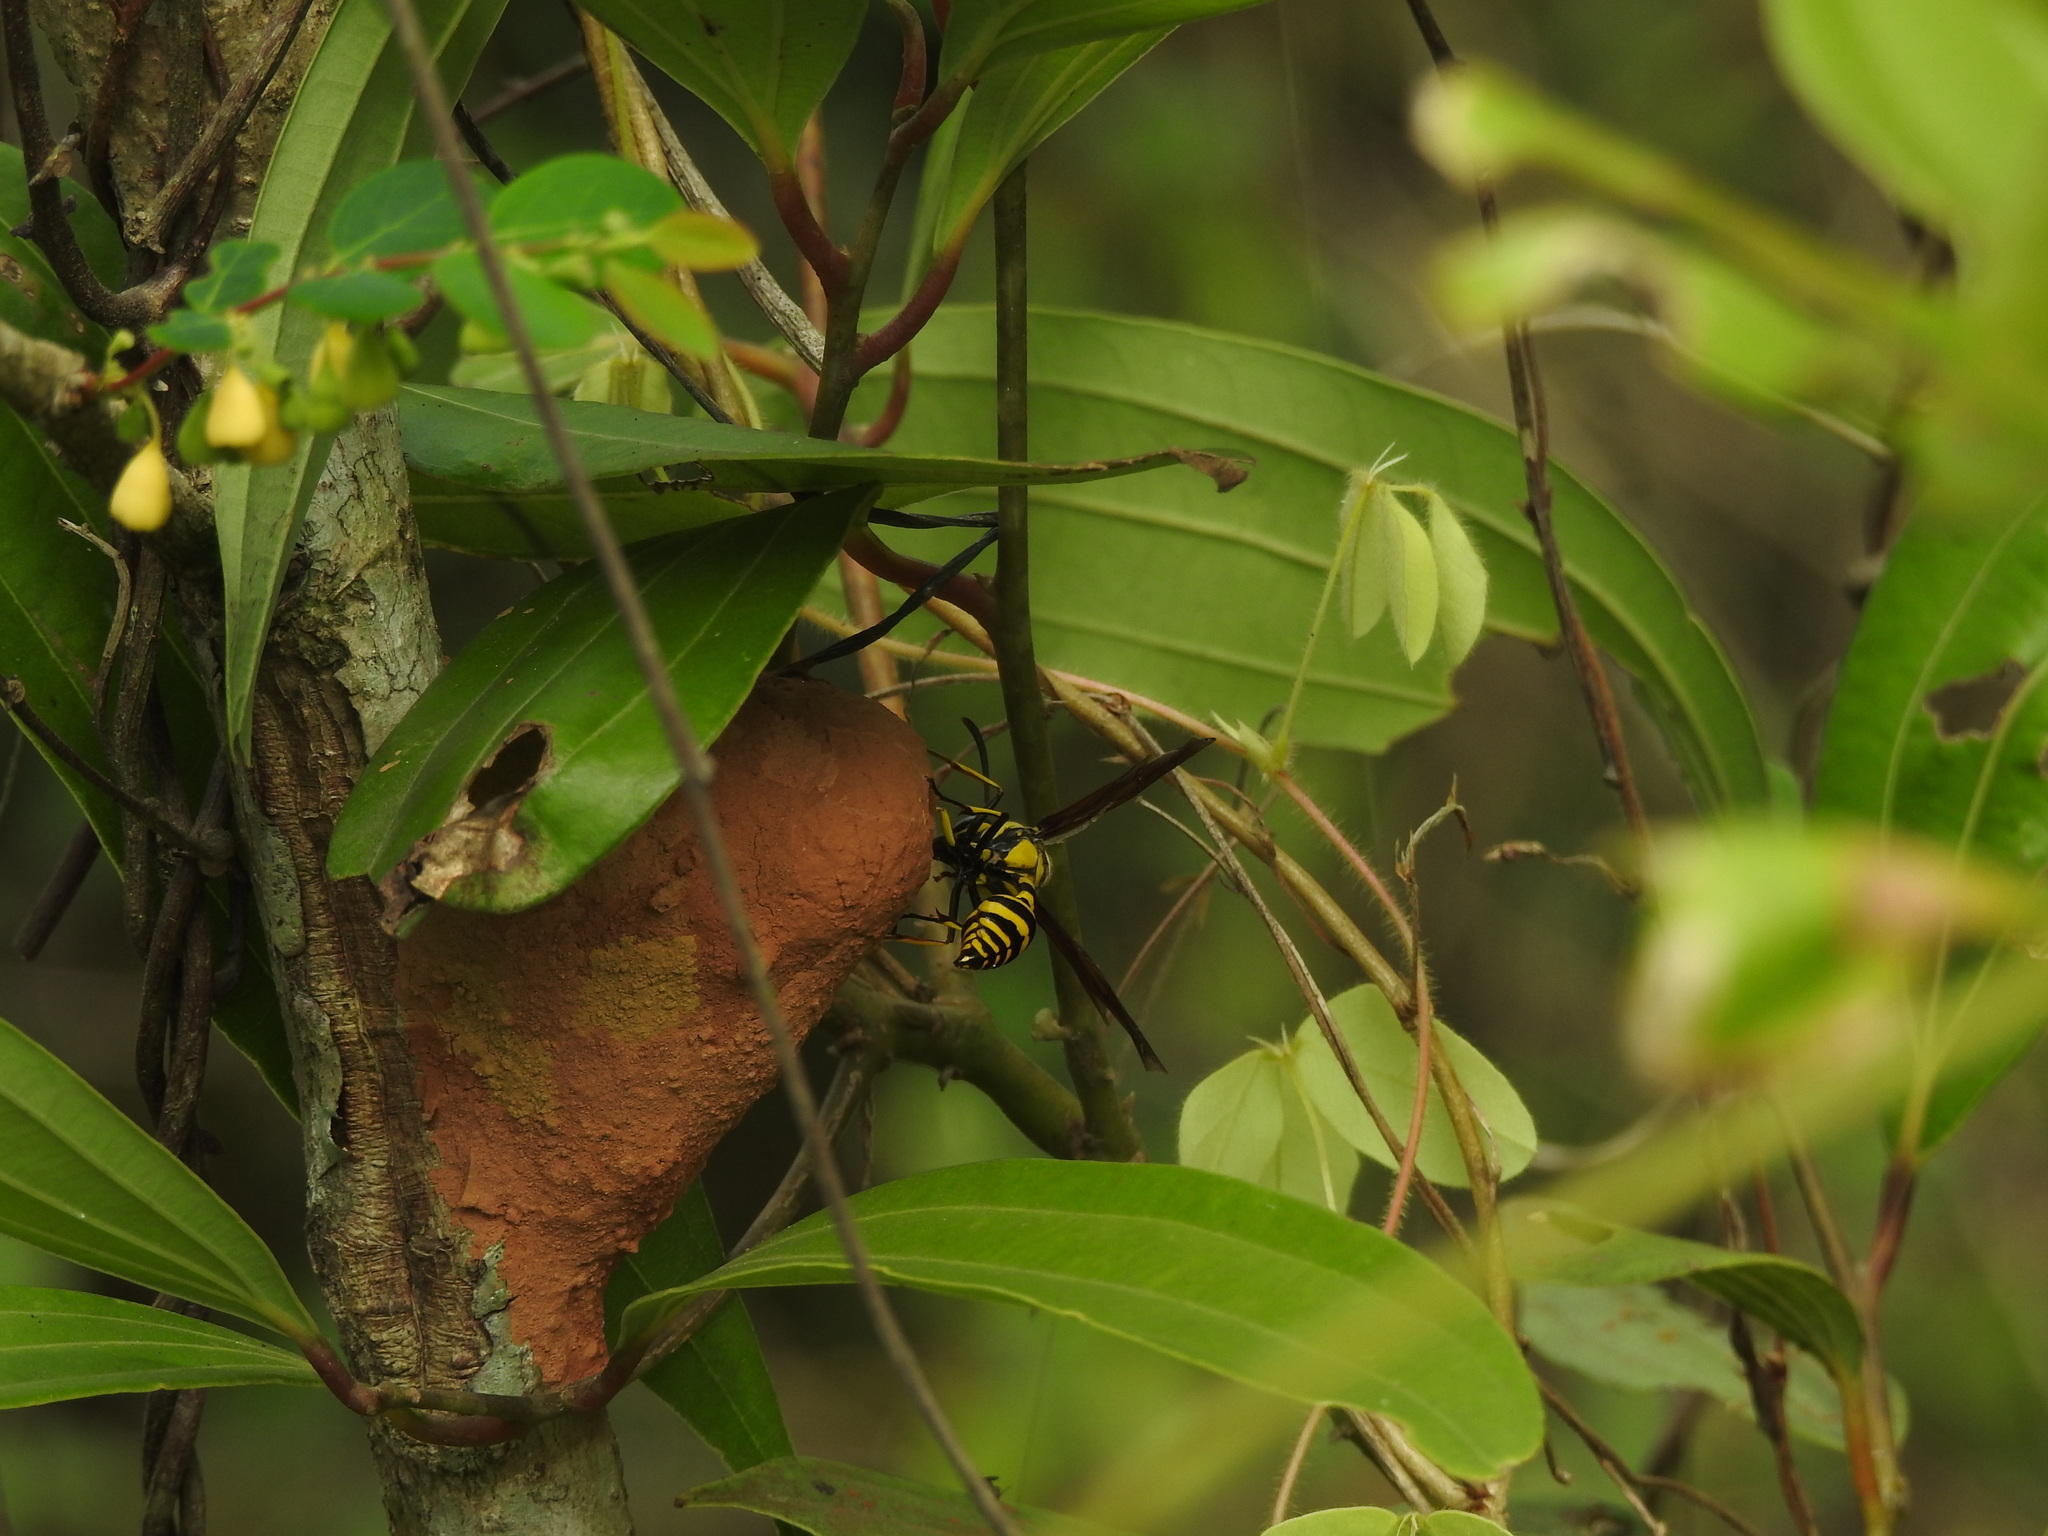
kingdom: Animalia
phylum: Arthropoda
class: Insecta
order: Hymenoptera
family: Eumenidae
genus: Phimenes
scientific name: Phimenes flavopictus
